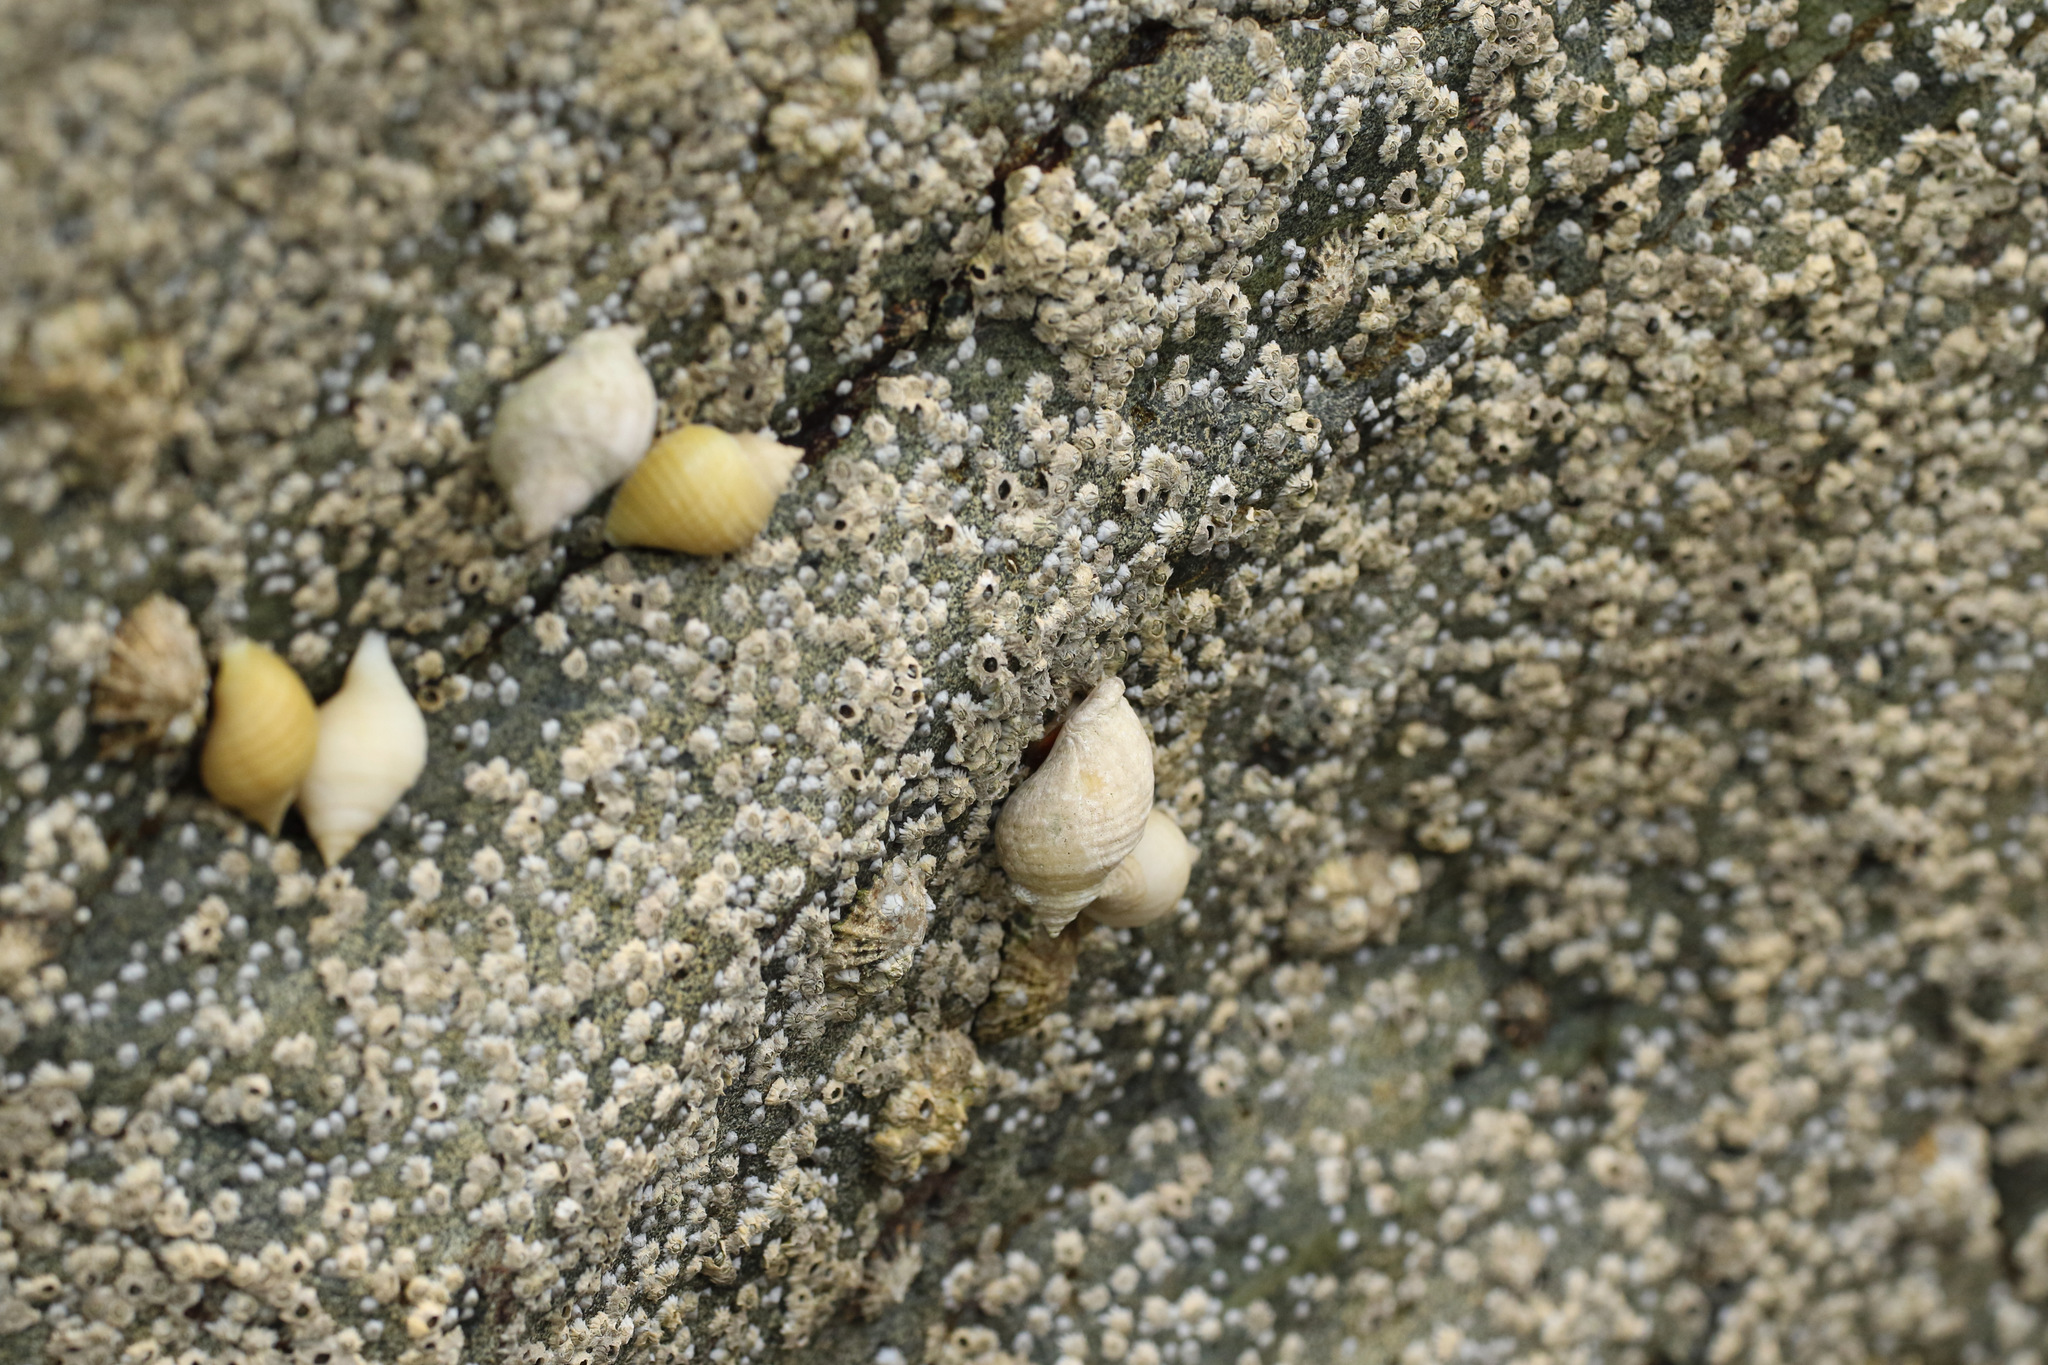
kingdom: Animalia
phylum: Mollusca
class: Gastropoda
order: Neogastropoda
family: Muricidae
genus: Nucella
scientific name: Nucella lapillus
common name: Dog whelk
